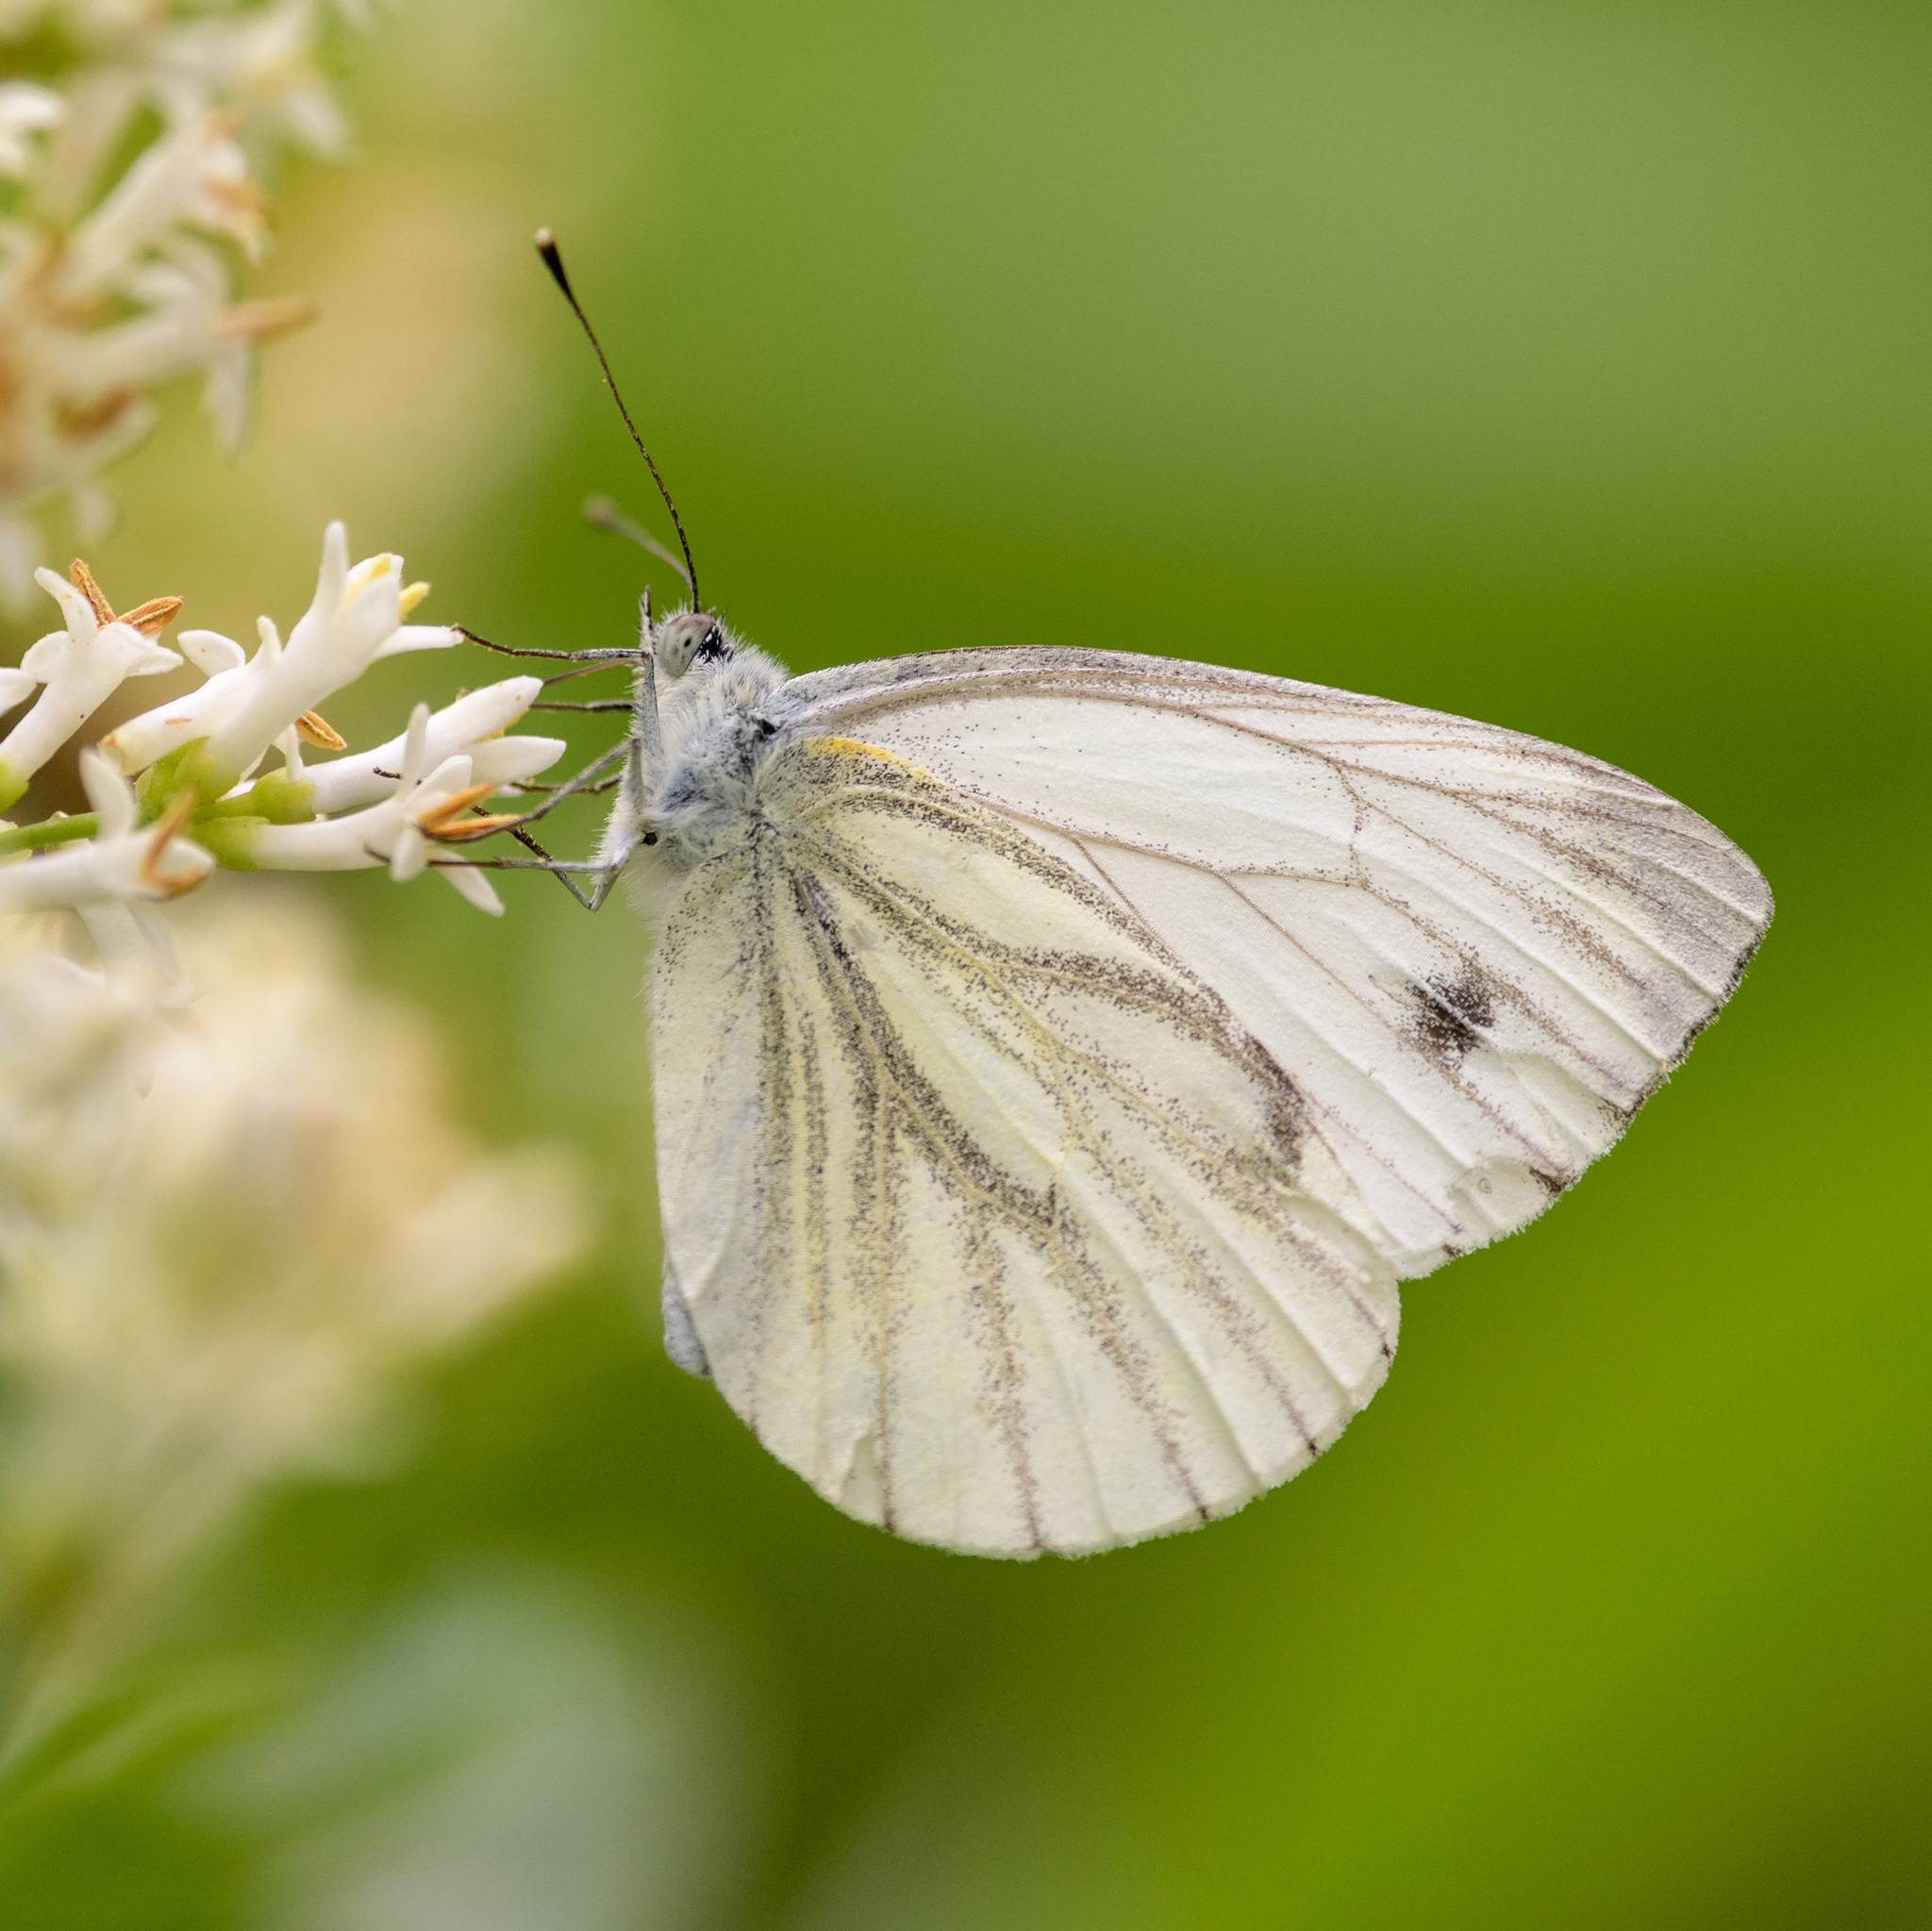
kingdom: Animalia
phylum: Arthropoda
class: Insecta
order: Lepidoptera
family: Pieridae
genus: Pieris
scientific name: Pieris napi
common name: Green-veined white
